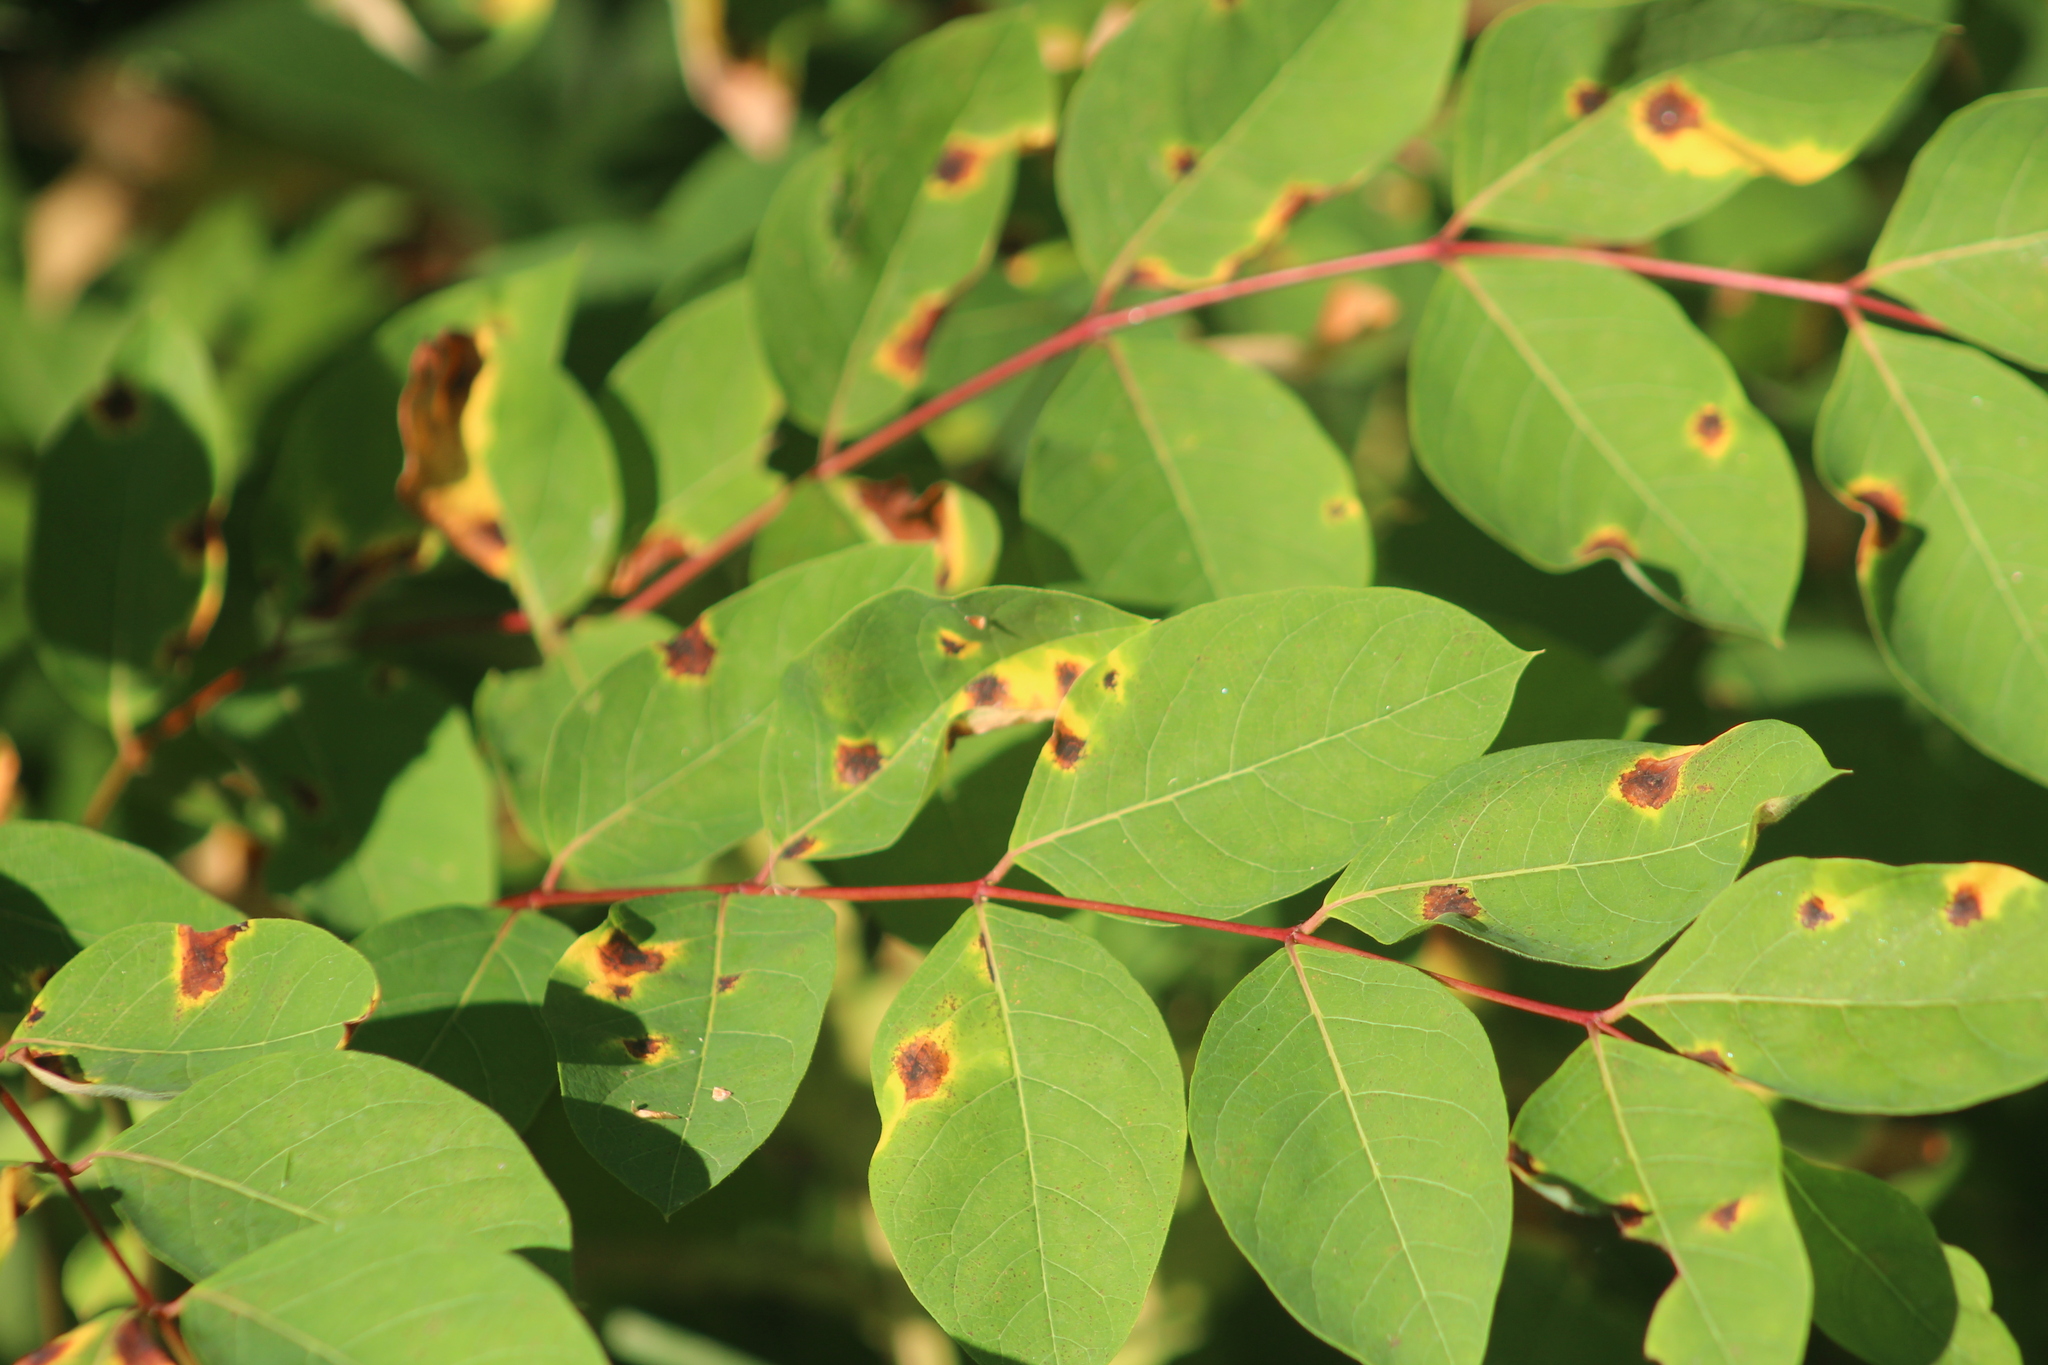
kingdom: Plantae
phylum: Tracheophyta
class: Magnoliopsida
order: Gentianales
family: Apocynaceae
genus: Apocynum
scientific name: Apocynum androsaemifolium
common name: Spreading dogbane
